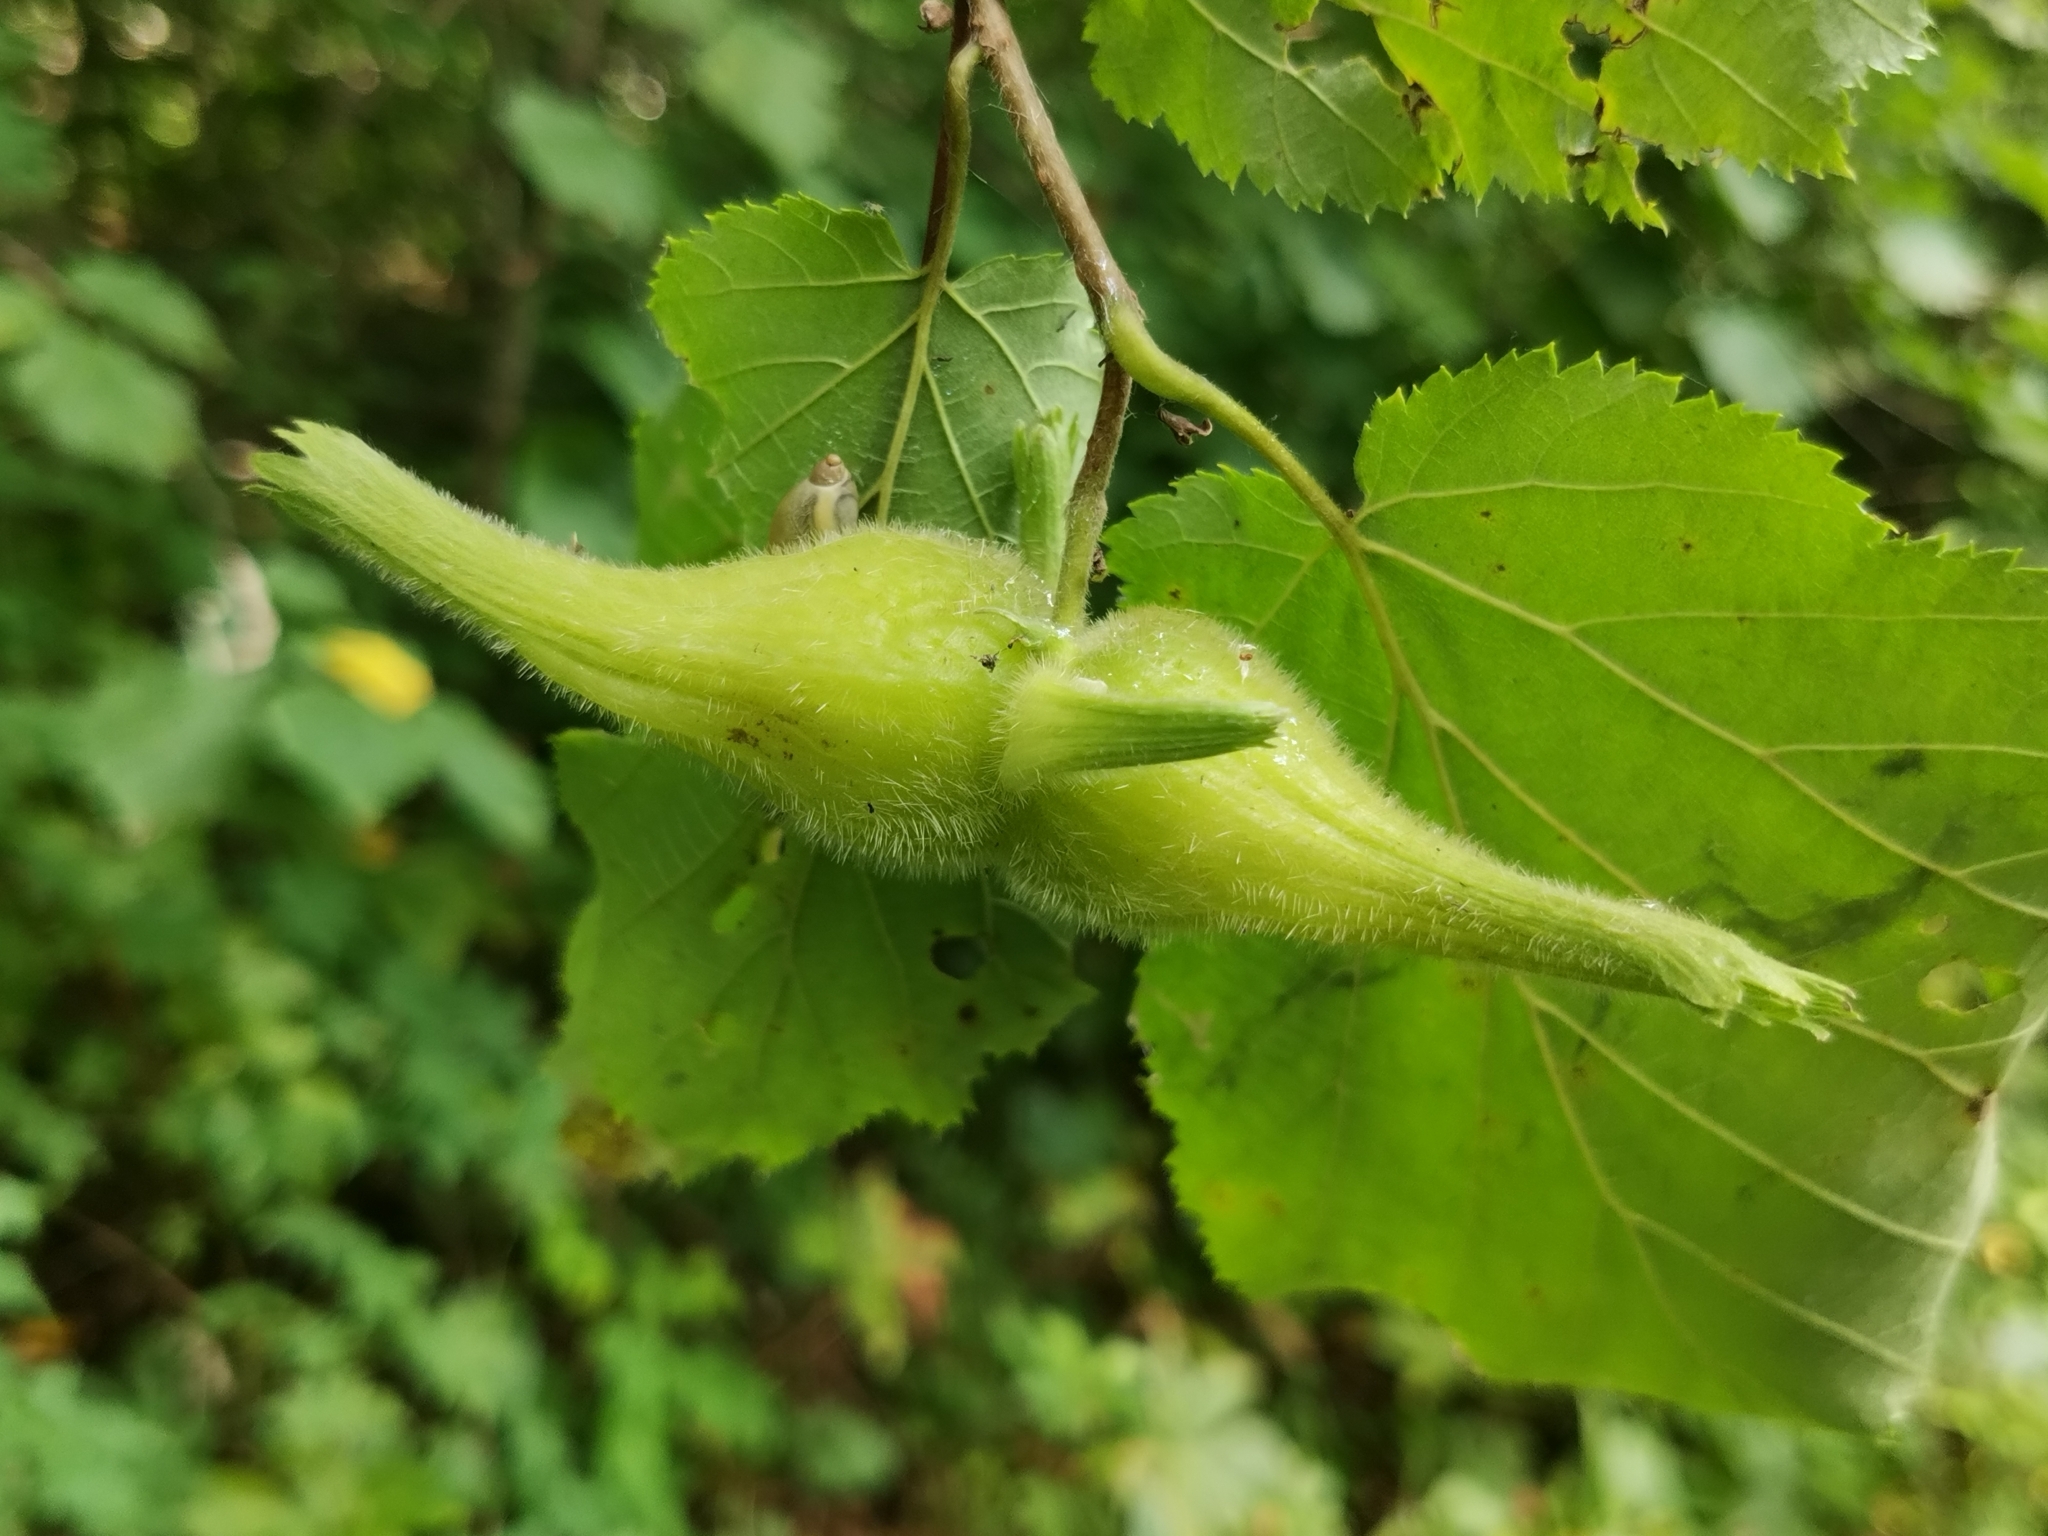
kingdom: Plantae
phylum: Tracheophyta
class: Magnoliopsida
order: Fagales
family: Betulaceae
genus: Corylus
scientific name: Corylus sieboldiana
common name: Japanese hazel
